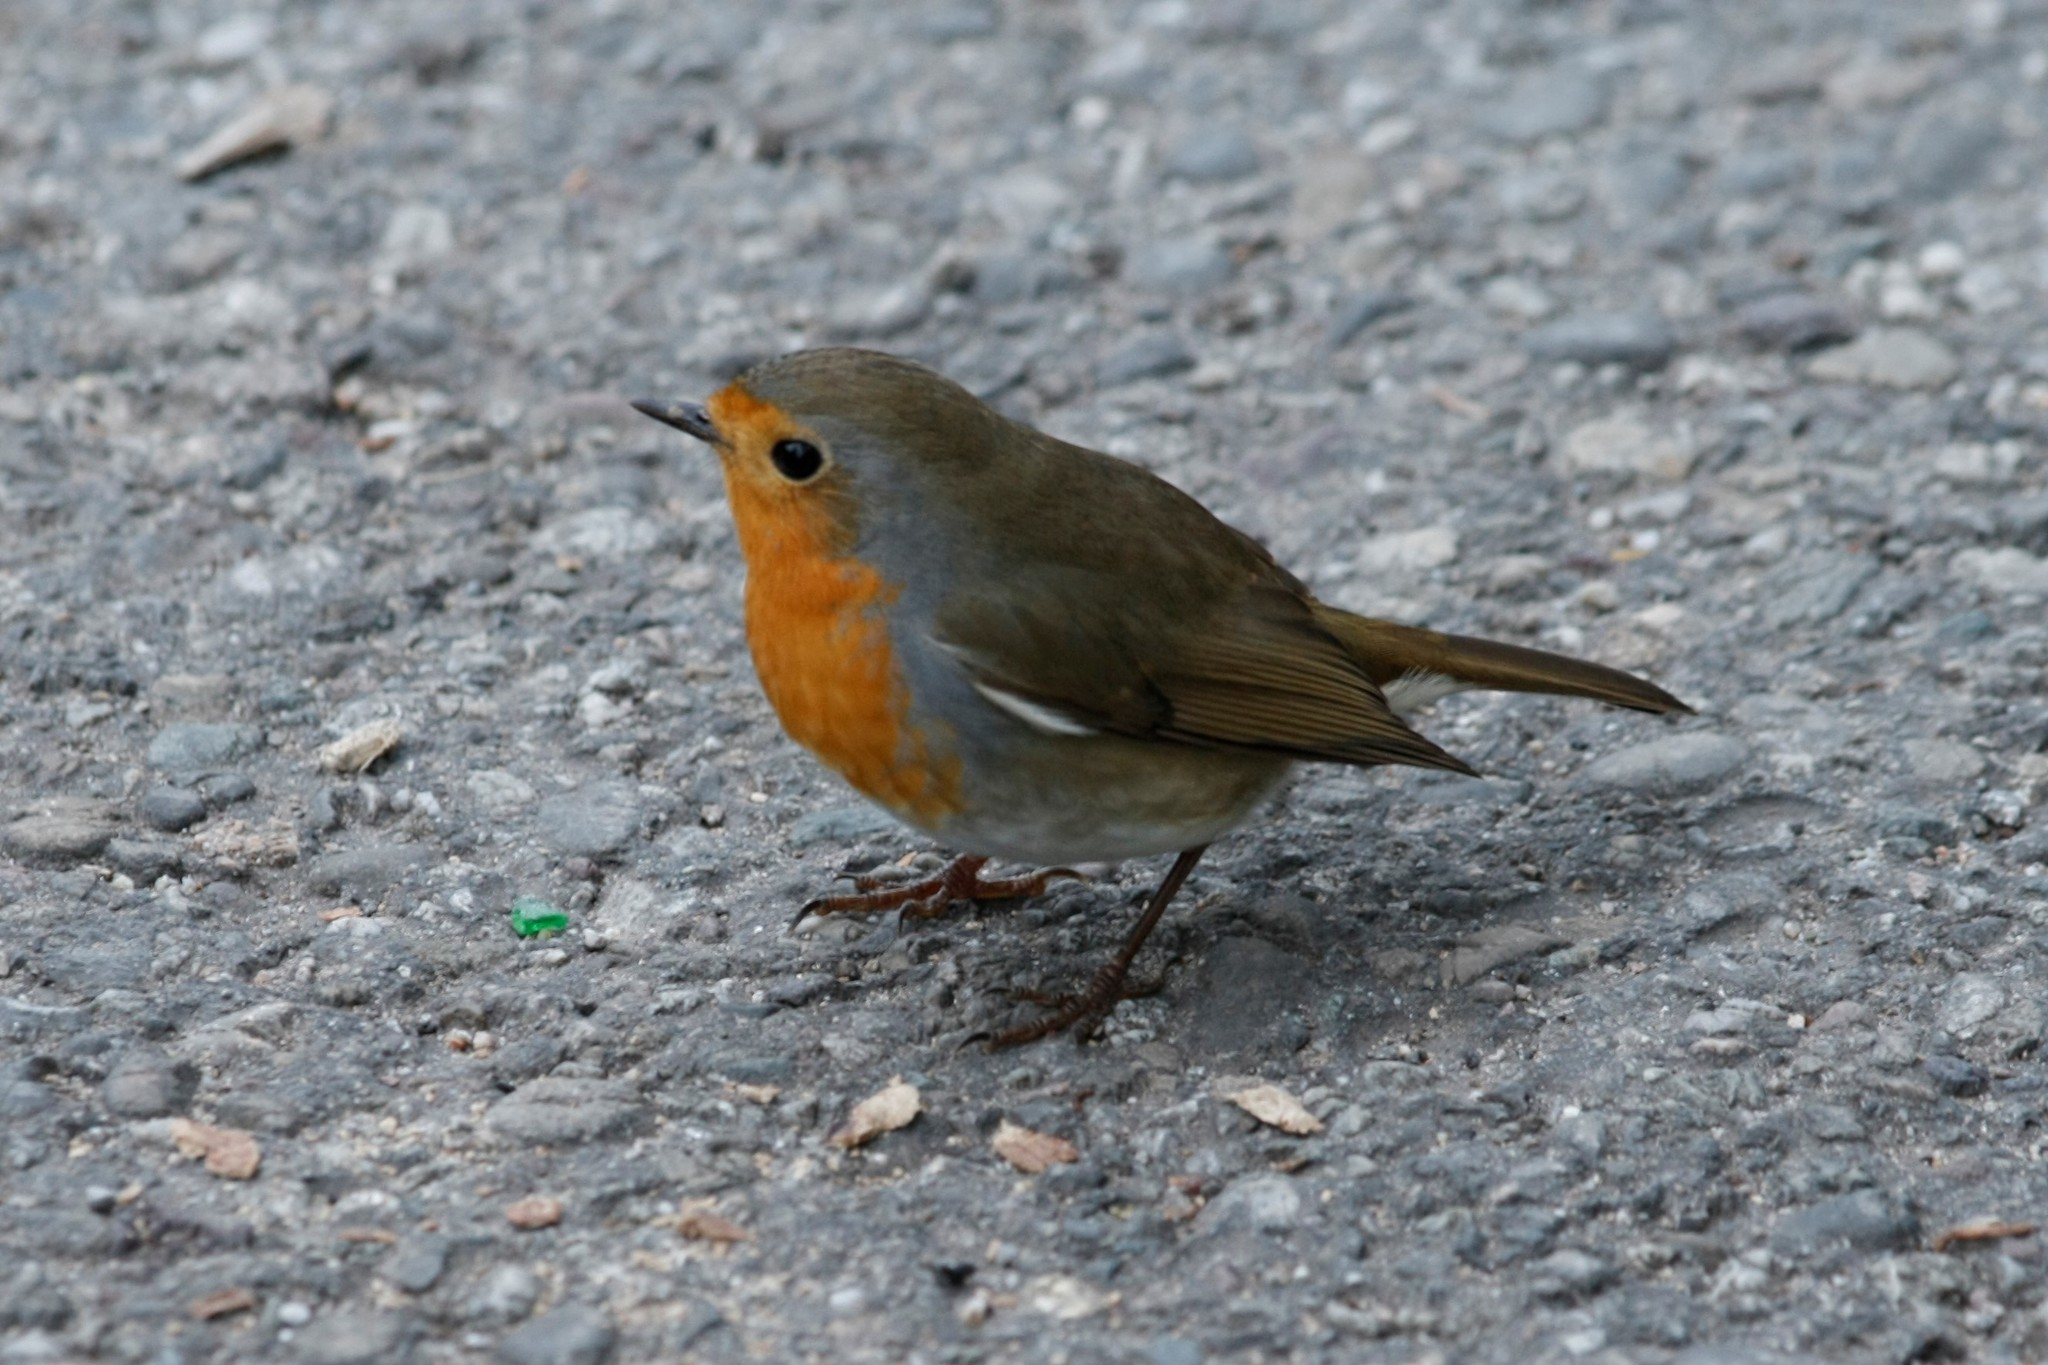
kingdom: Animalia
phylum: Chordata
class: Aves
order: Passeriformes
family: Muscicapidae
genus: Erithacus
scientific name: Erithacus rubecula
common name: European robin
